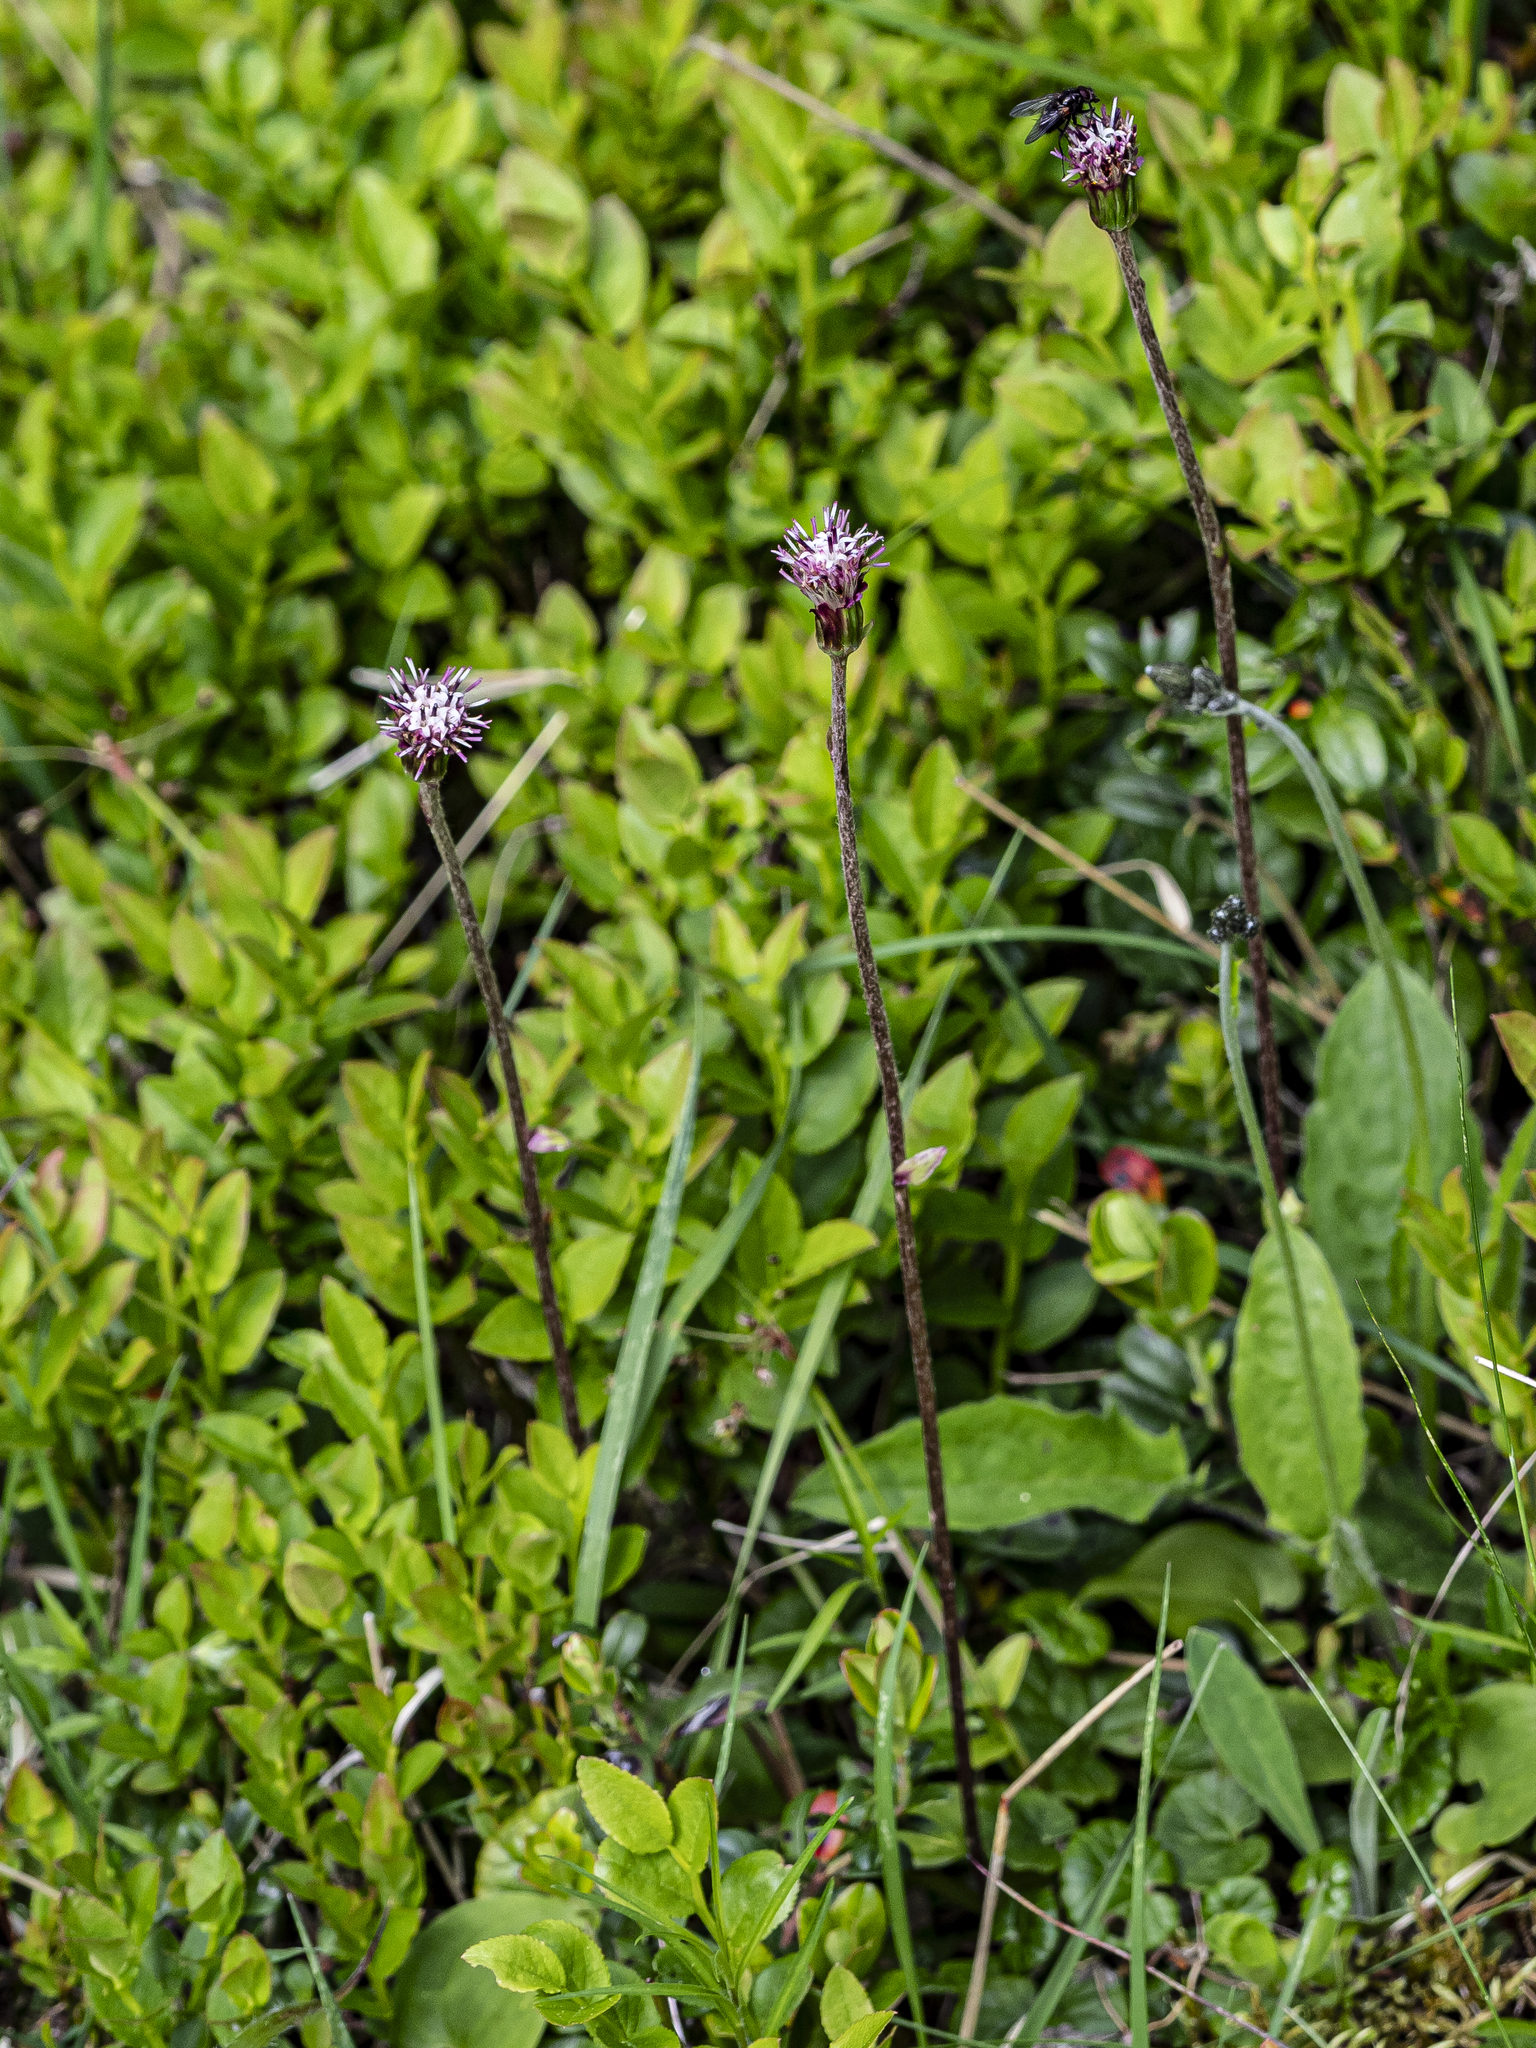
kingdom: Plantae
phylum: Tracheophyta
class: Magnoliopsida
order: Asterales
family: Asteraceae
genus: Homogyne
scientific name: Homogyne alpina
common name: Purple colt's-foot
